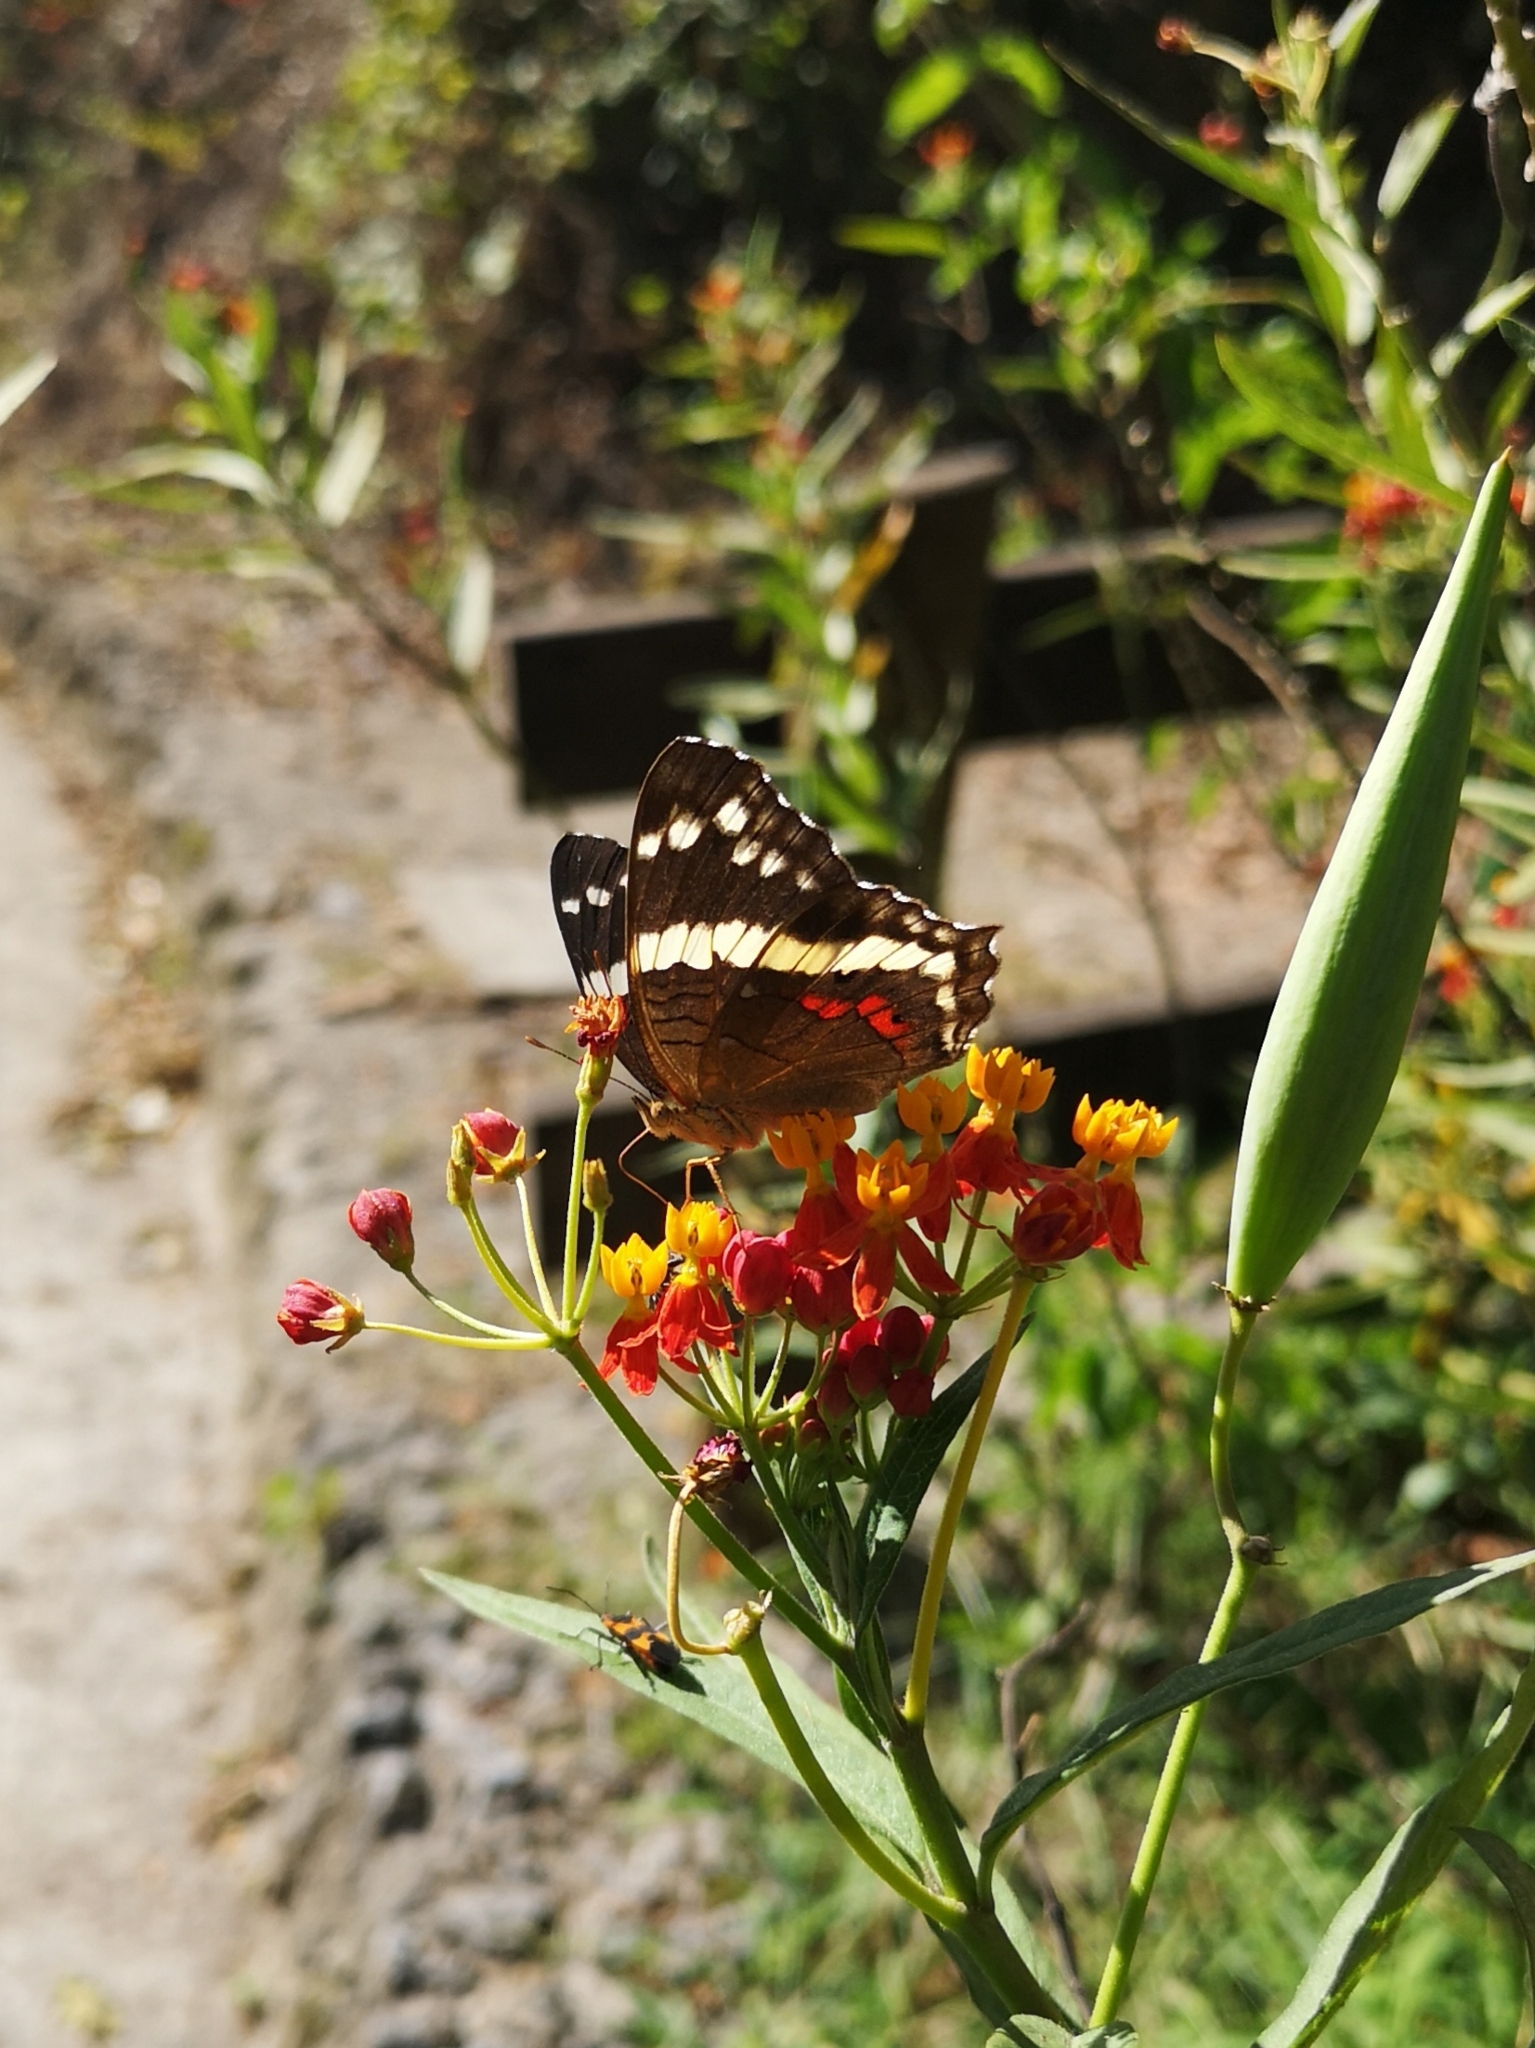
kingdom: Animalia
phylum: Arthropoda
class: Insecta
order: Lepidoptera
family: Nymphalidae
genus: Anartia
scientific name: Anartia fatima
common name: Banded peacock
